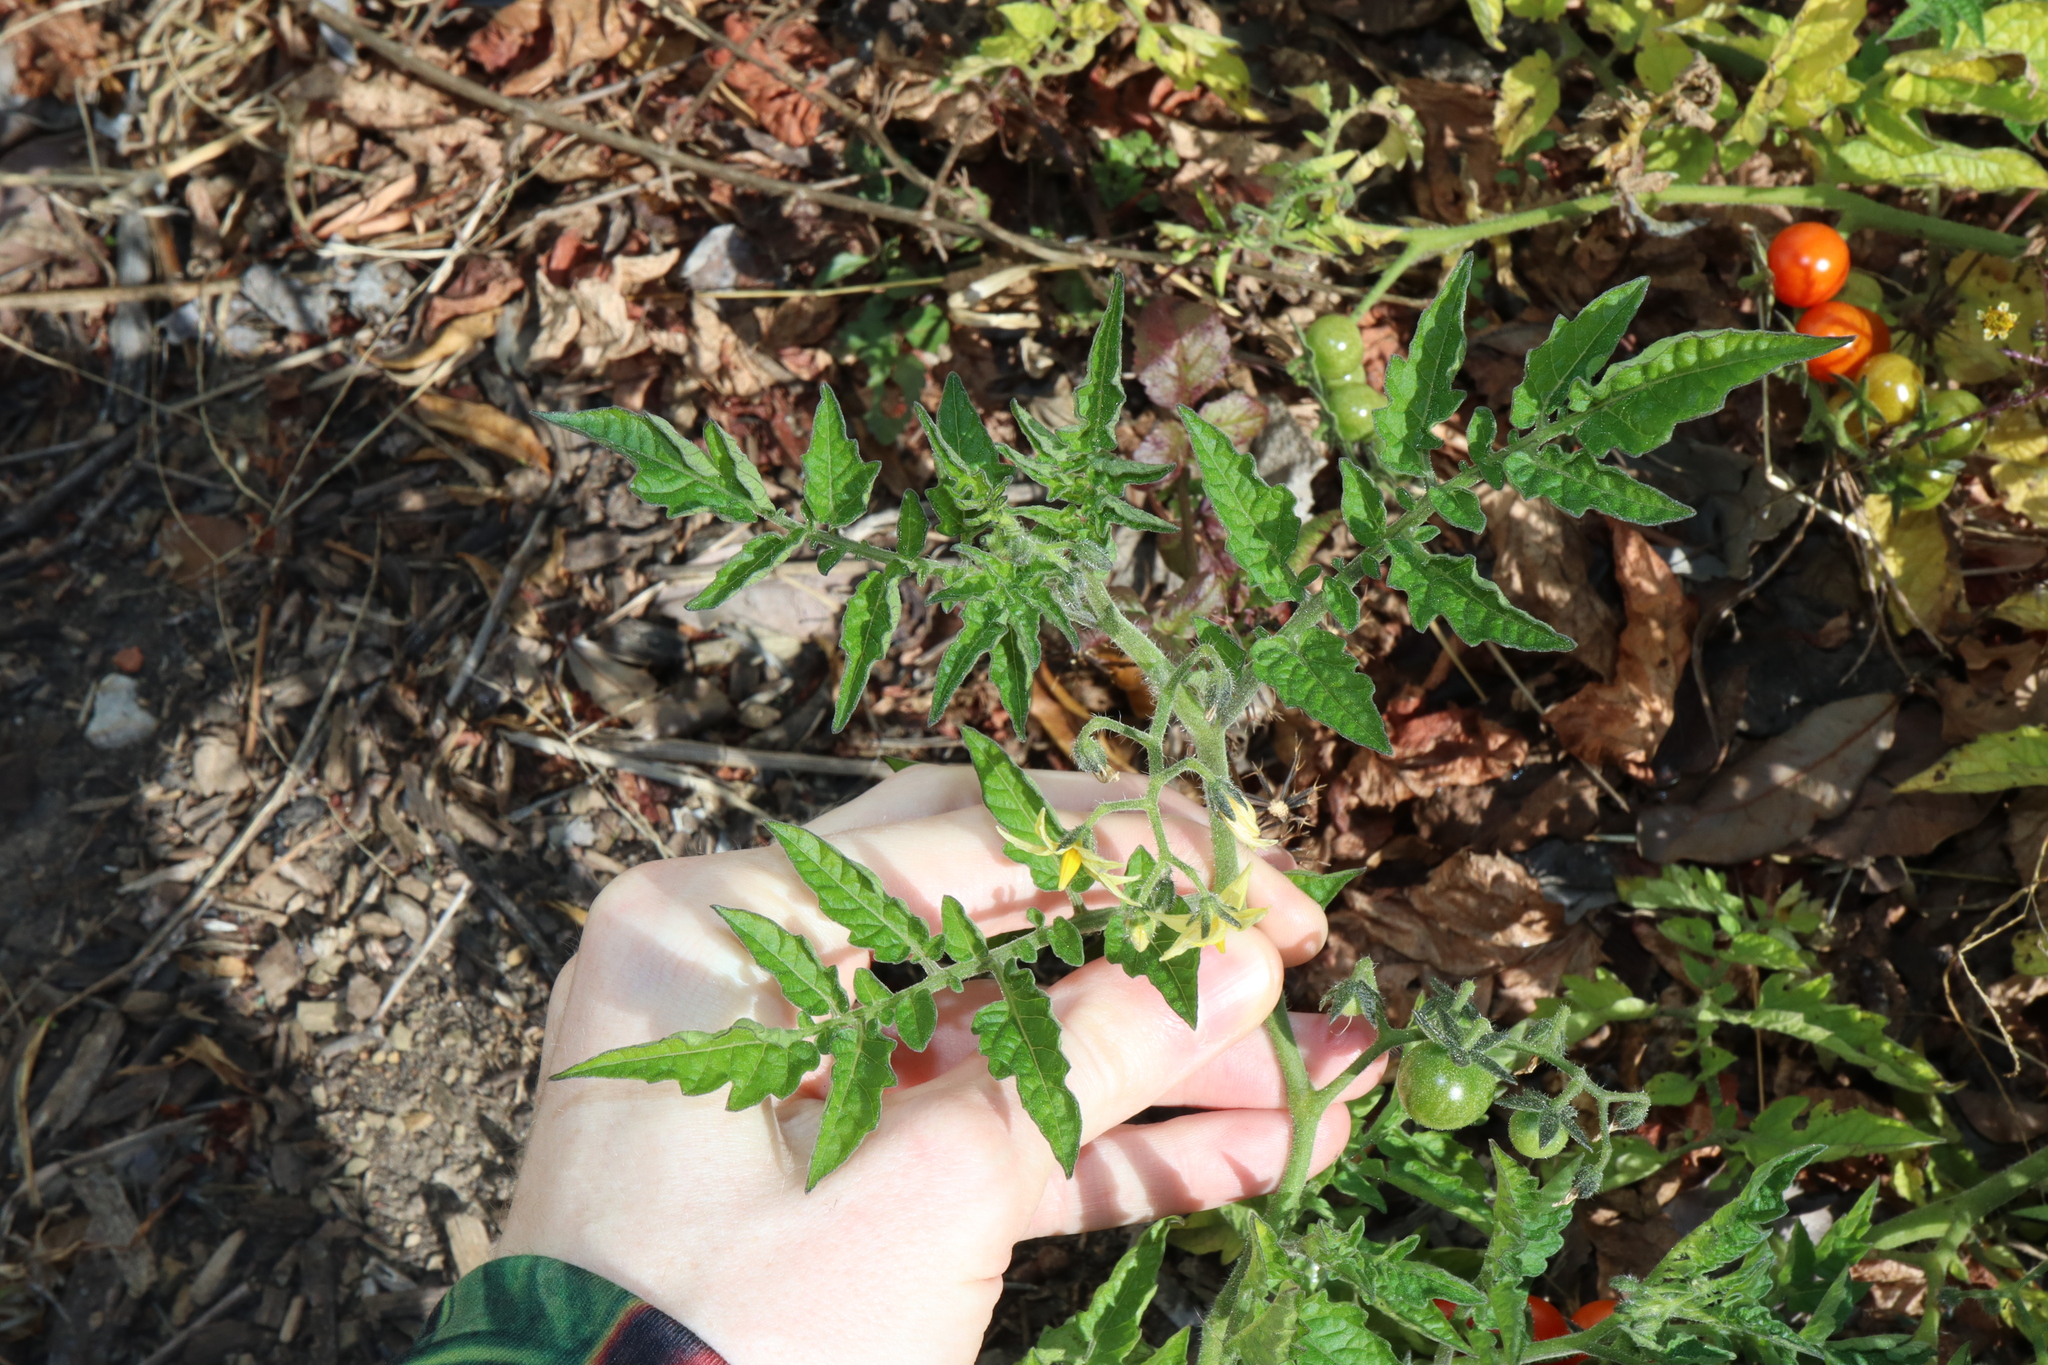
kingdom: Plantae
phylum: Tracheophyta
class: Magnoliopsida
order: Solanales
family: Solanaceae
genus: Solanum
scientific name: Solanum lycopersicum
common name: Garden tomato
